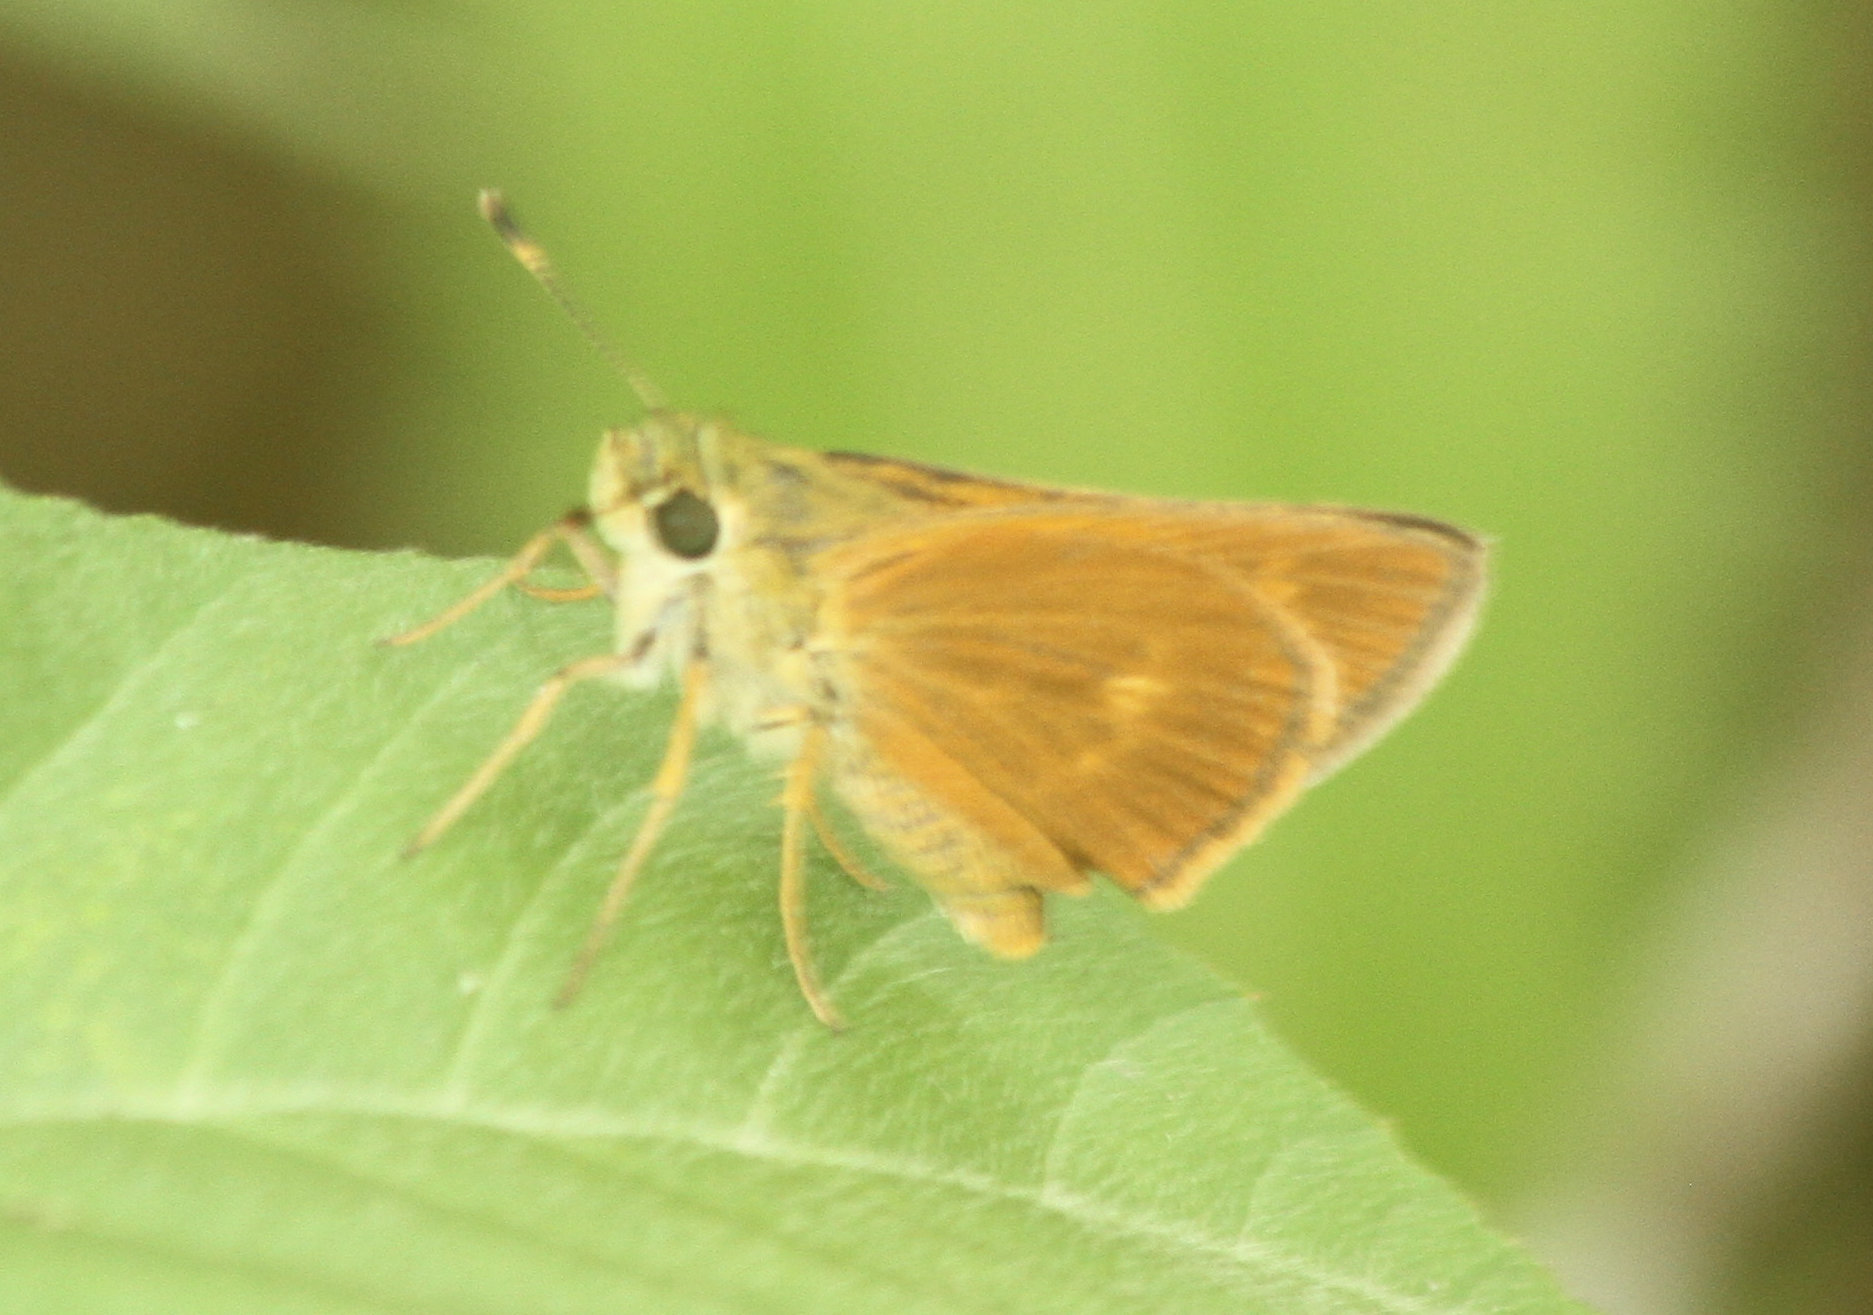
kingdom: Animalia
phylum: Arthropoda
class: Insecta
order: Lepidoptera
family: Hesperiidae
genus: Polites
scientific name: Polites otho
